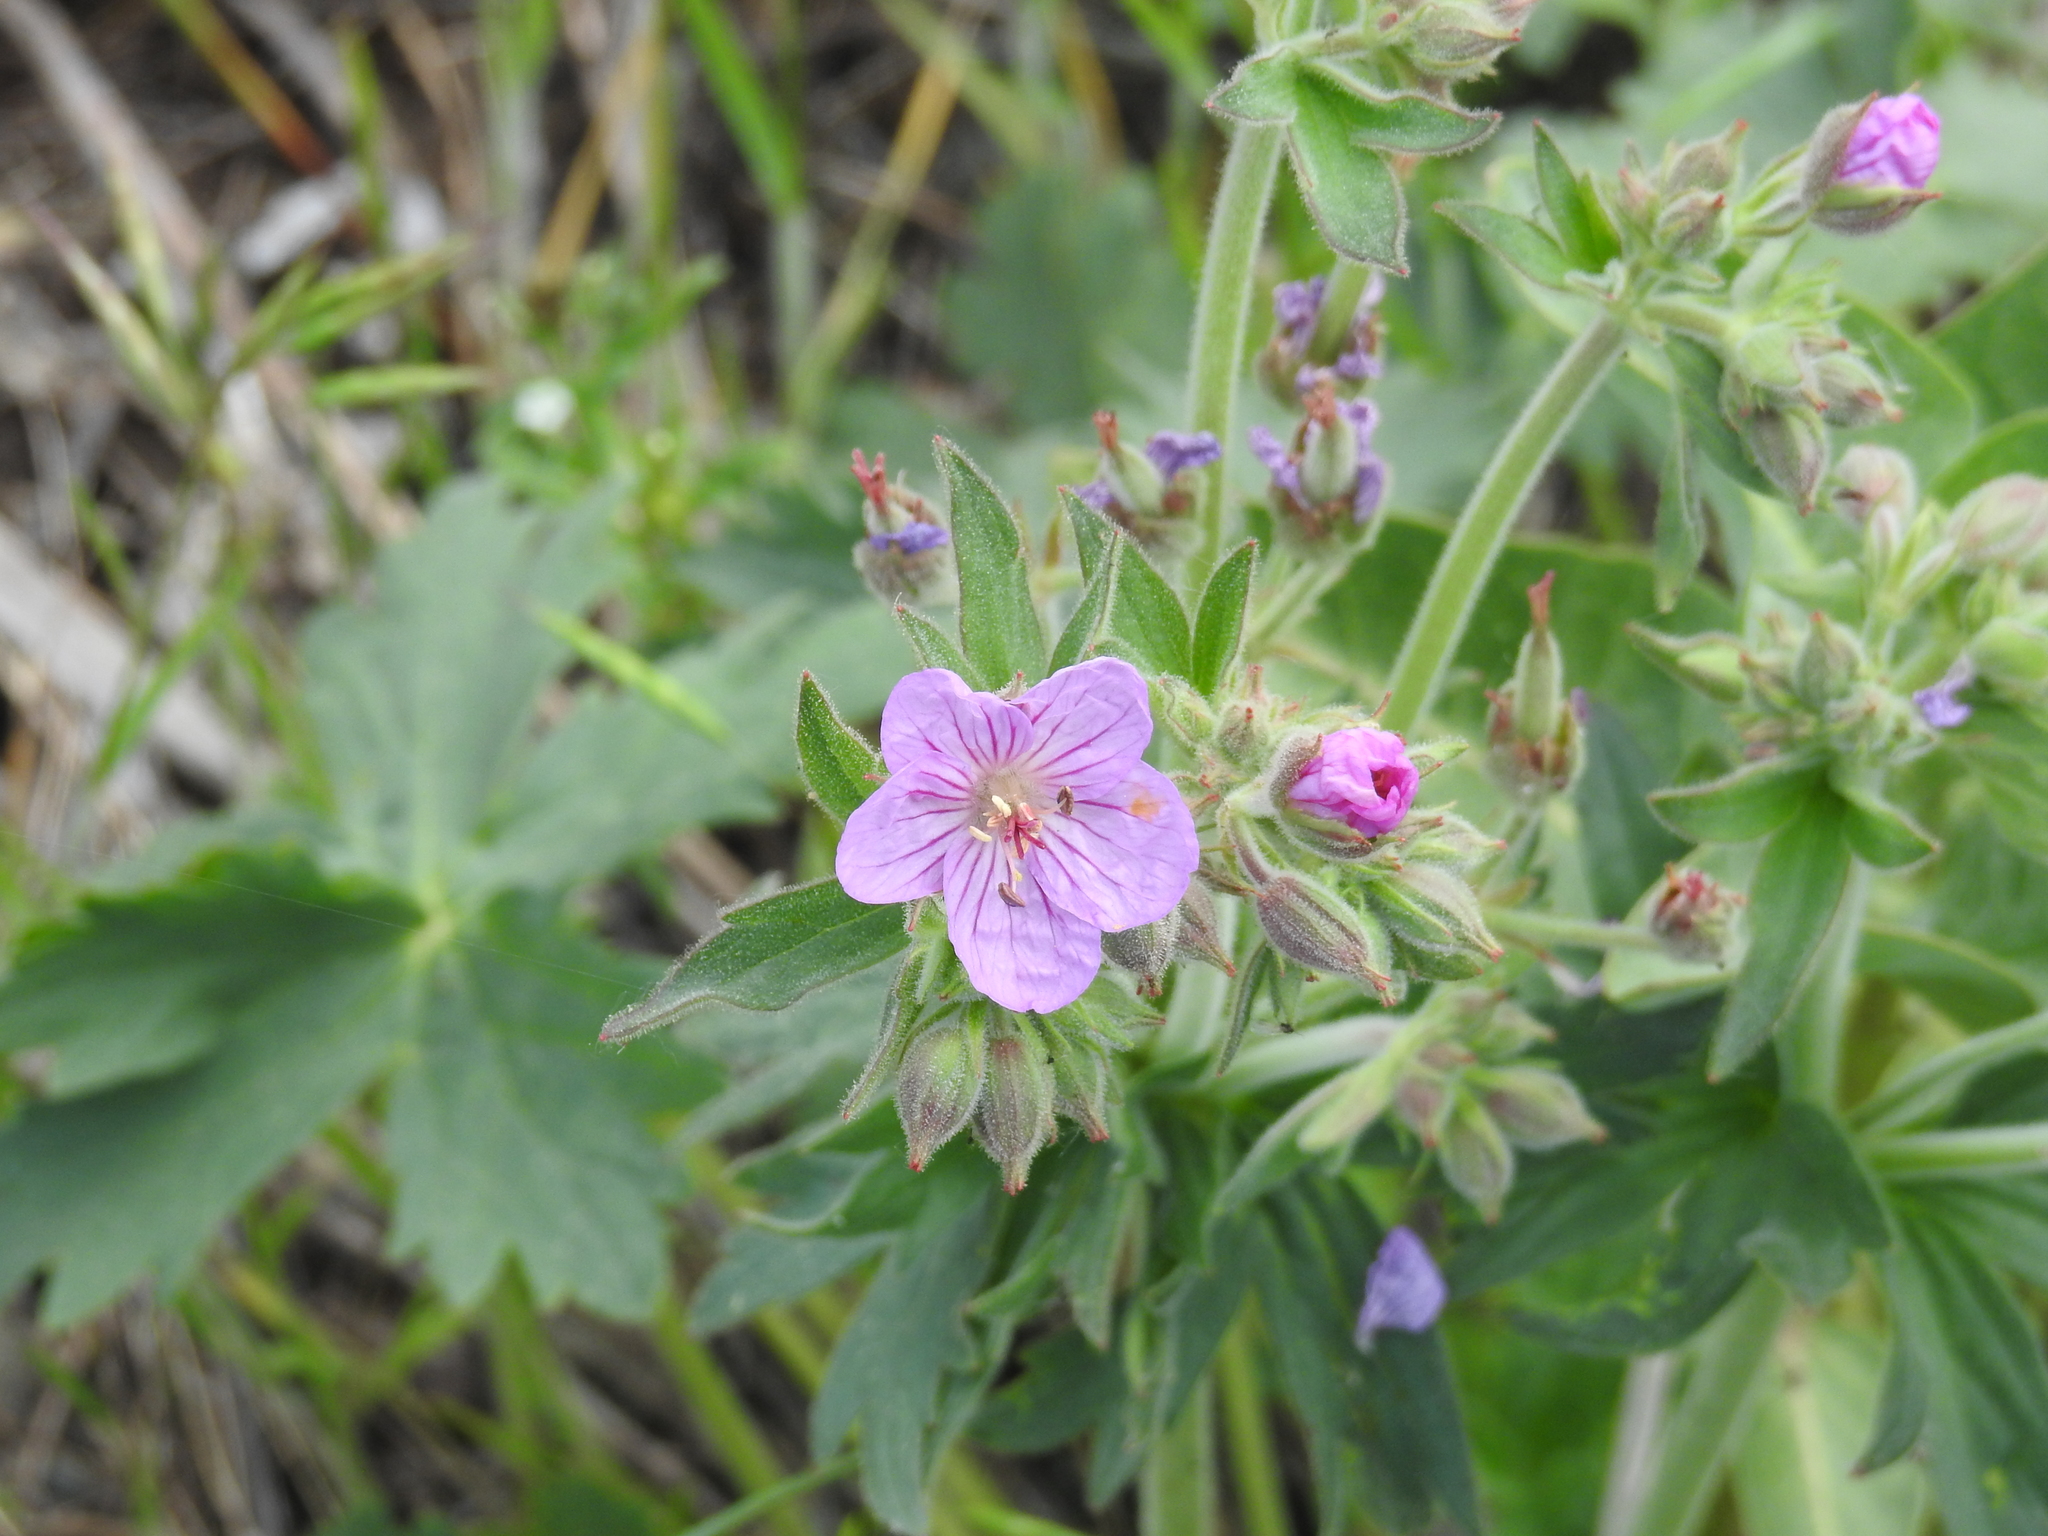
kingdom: Plantae
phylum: Tracheophyta
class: Magnoliopsida
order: Geraniales
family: Geraniaceae
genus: Geranium
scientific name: Geranium viscosissimum
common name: Purple geranium
